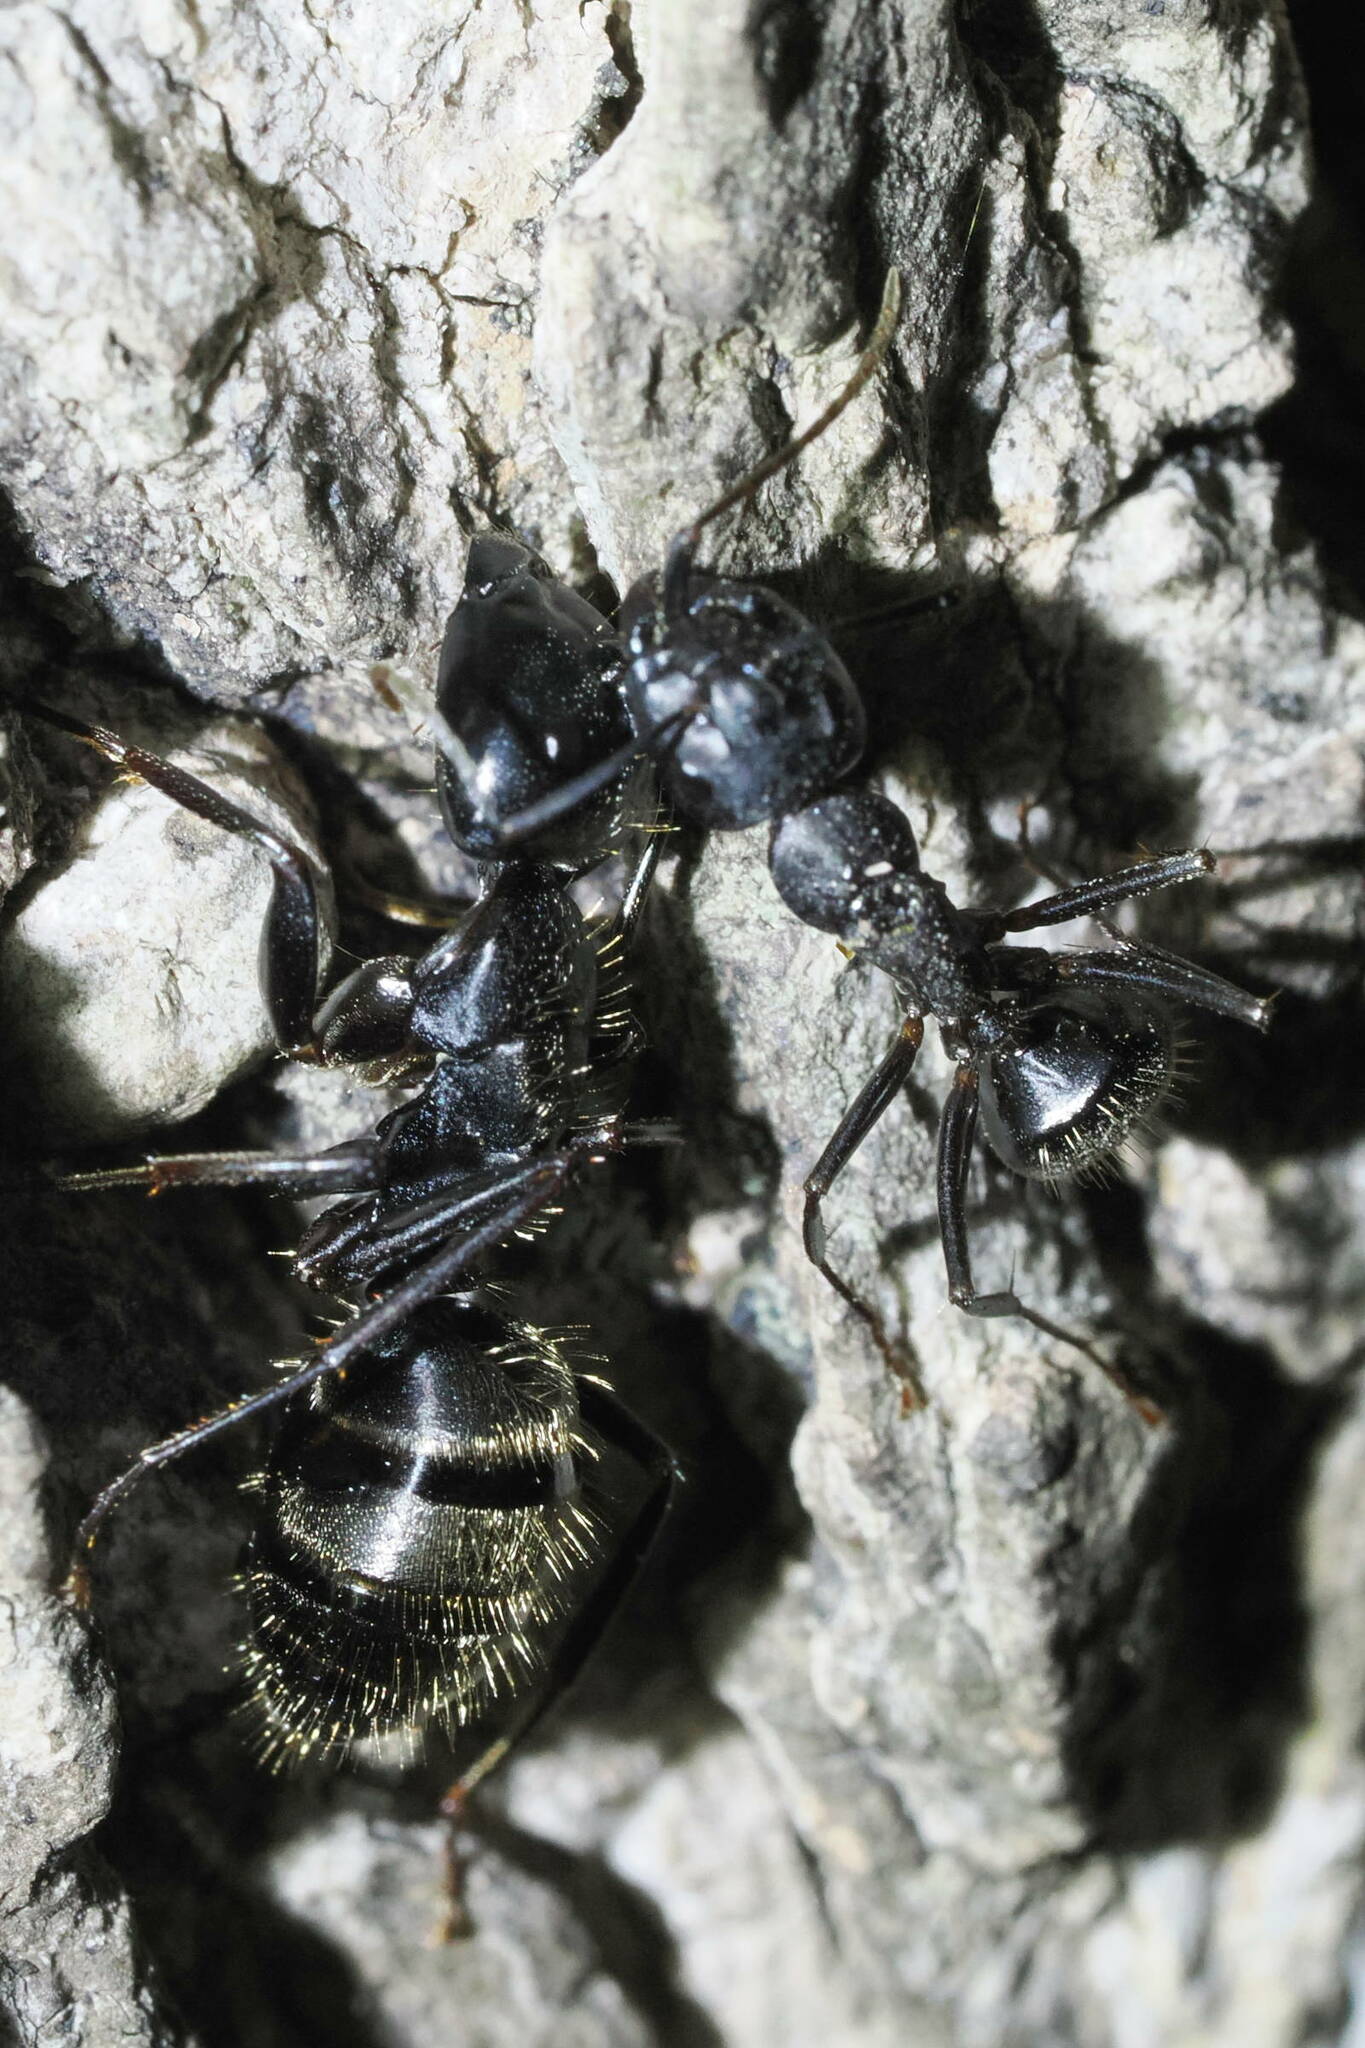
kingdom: Animalia
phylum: Arthropoda
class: Insecta
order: Hymenoptera
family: Formicidae
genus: Camponotus
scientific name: Camponotus pennsylvanicus
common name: Black carpenter ant
